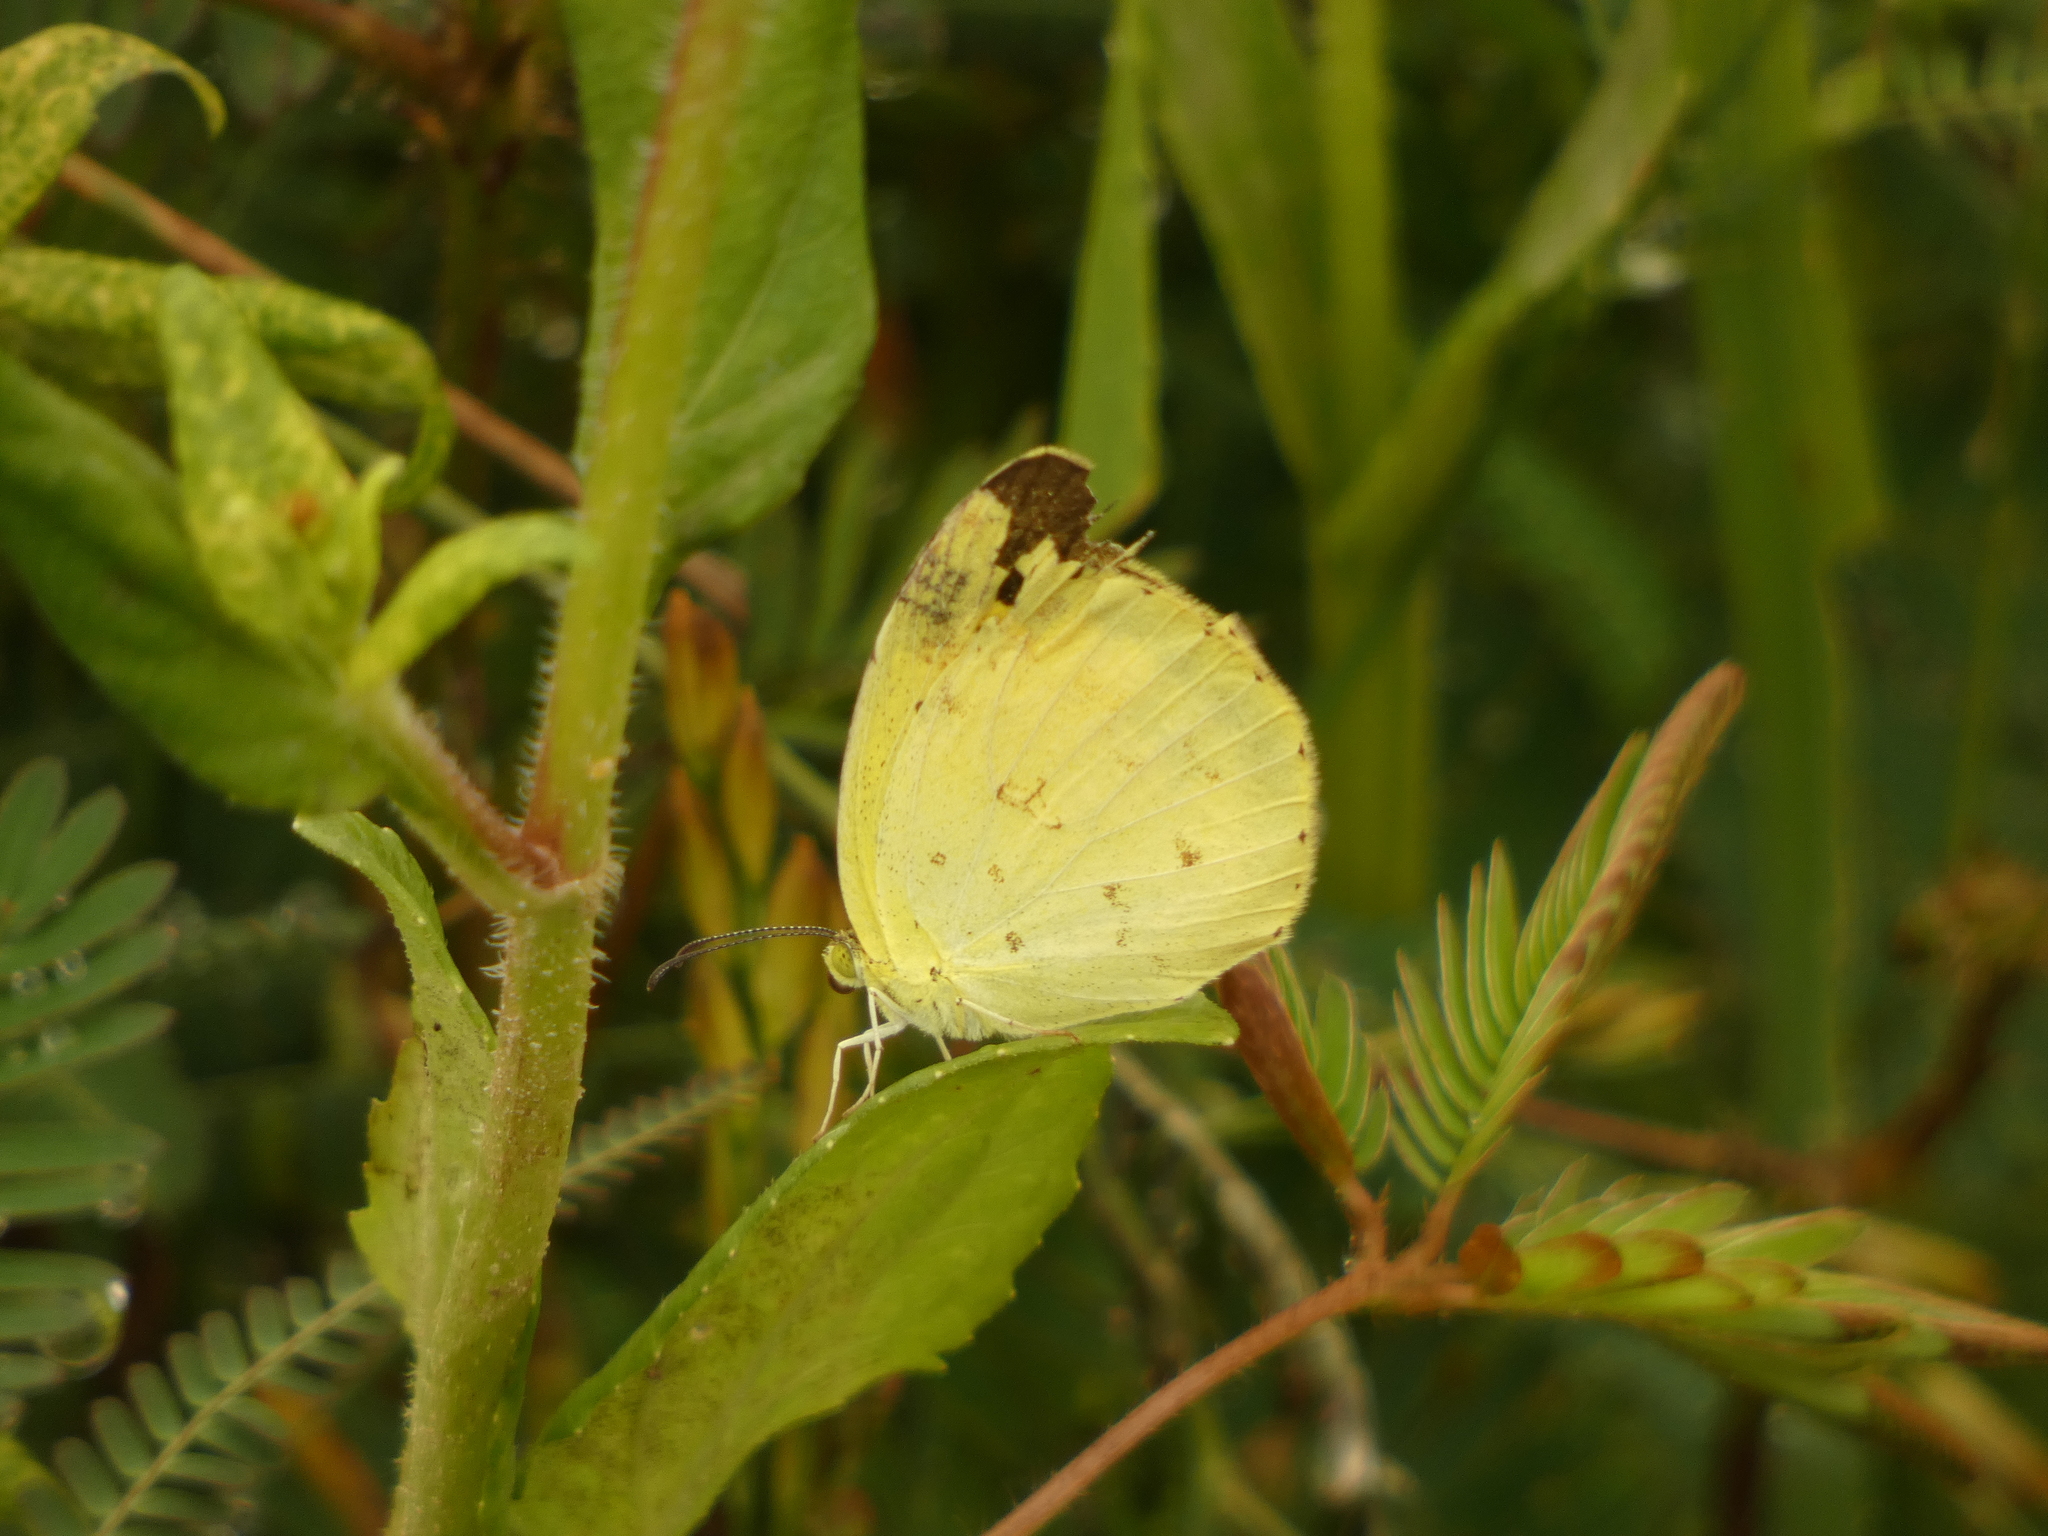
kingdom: Animalia
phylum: Arthropoda
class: Insecta
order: Lepidoptera
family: Pieridae
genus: Eurema
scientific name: Eurema hecabe
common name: Pale grass yellow
